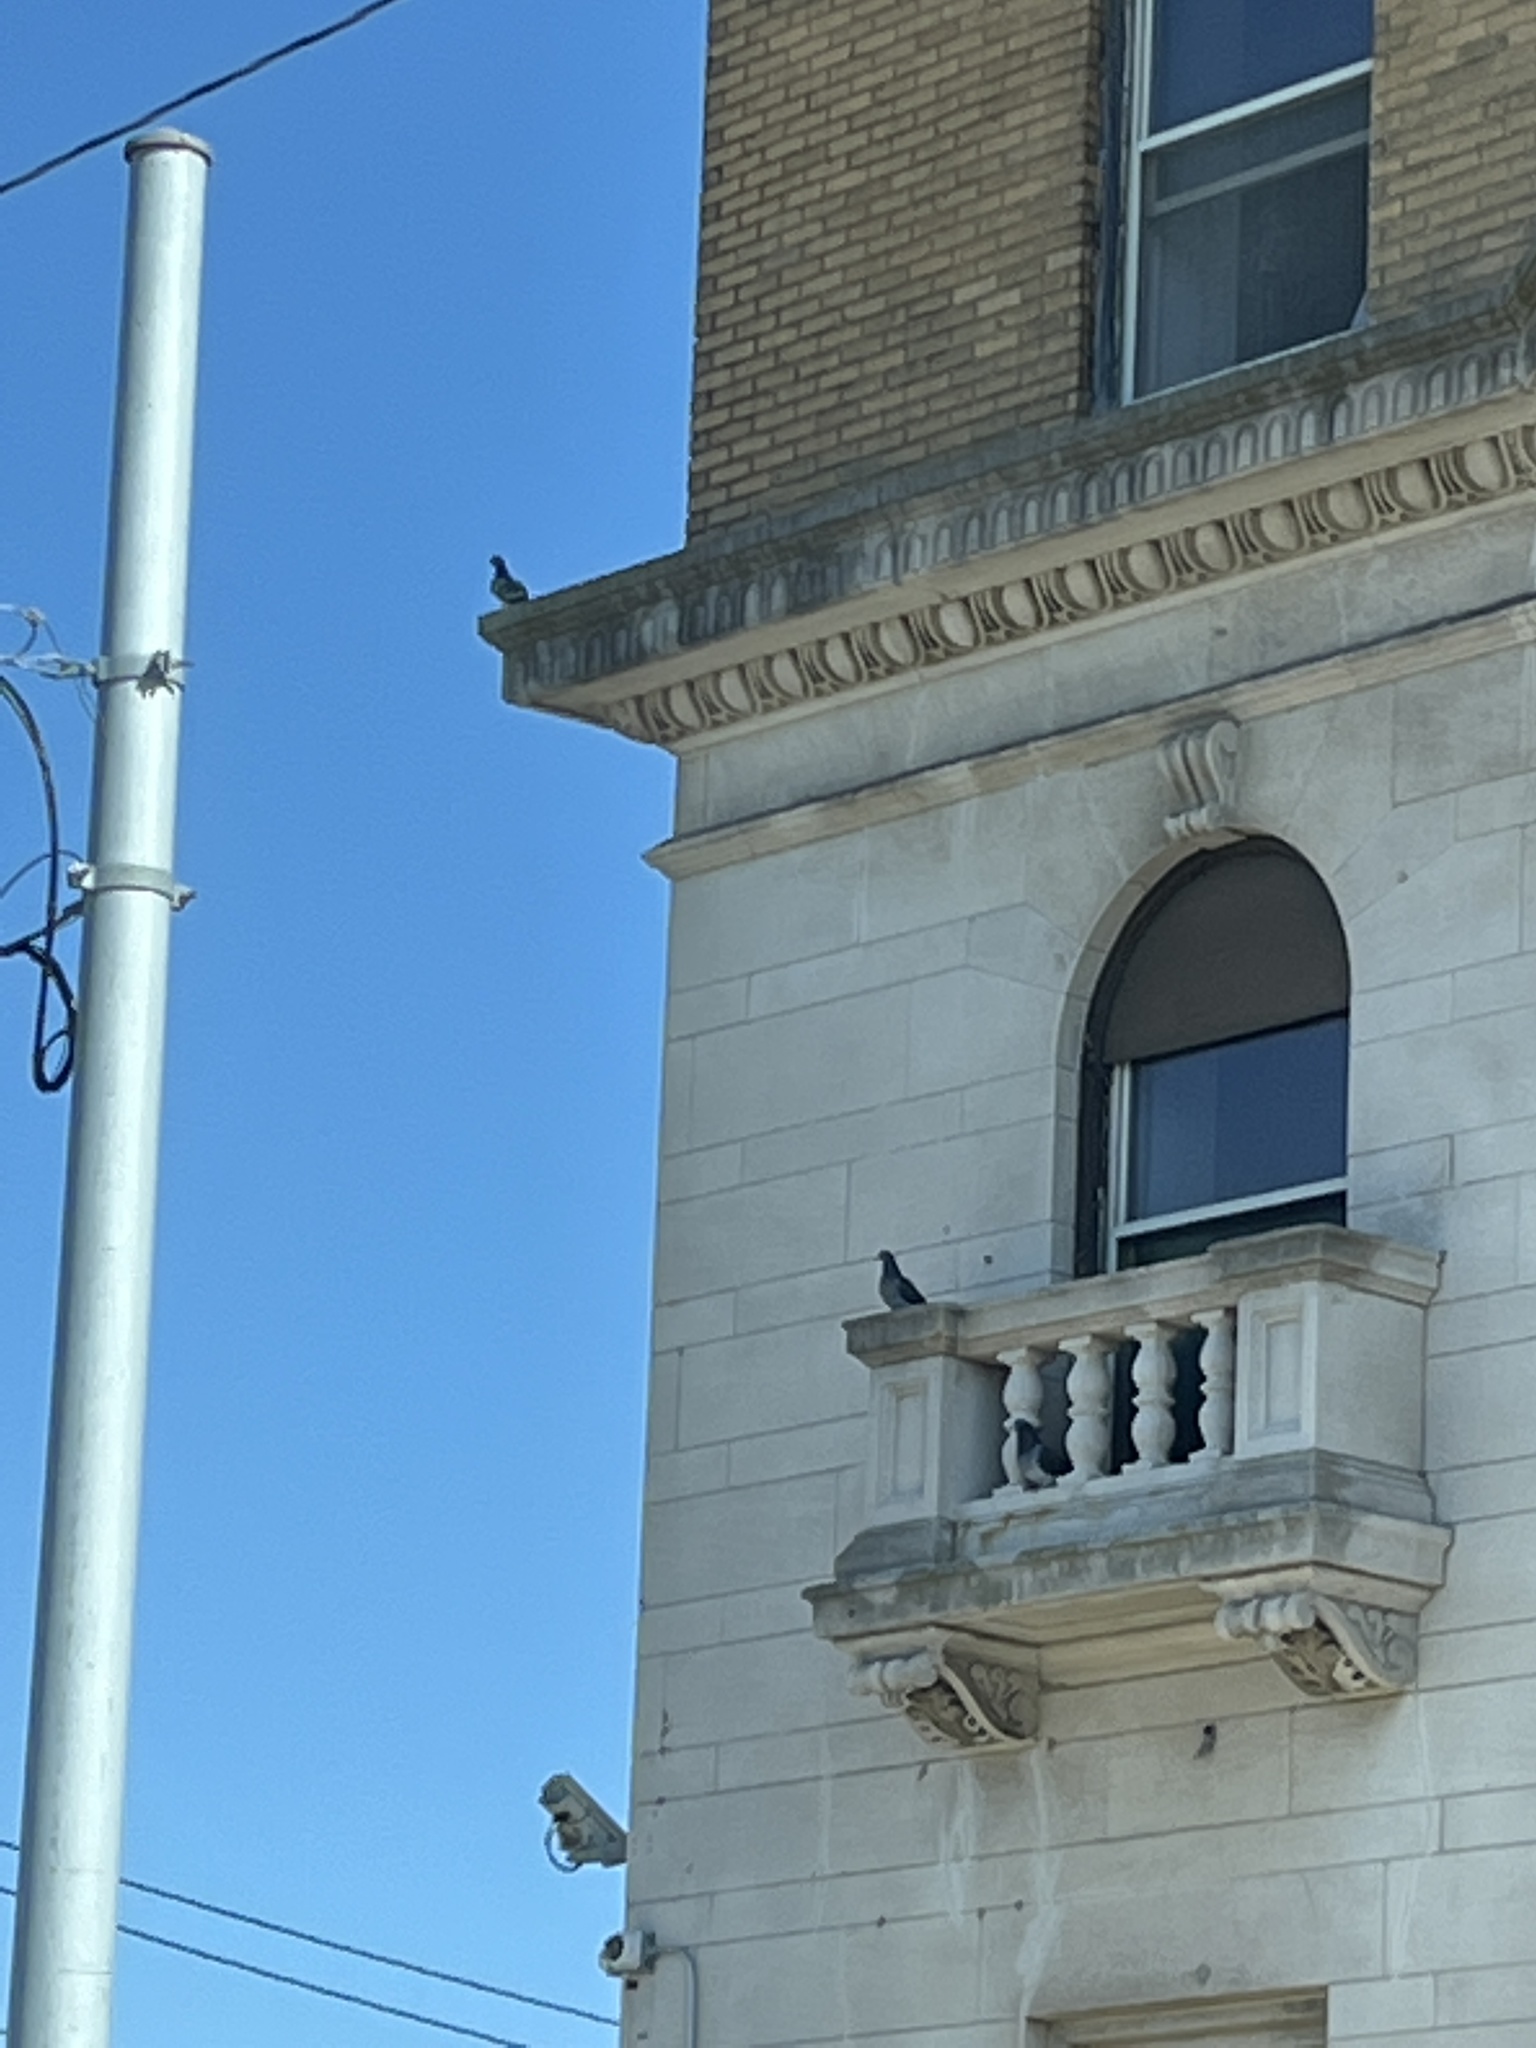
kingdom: Animalia
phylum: Chordata
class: Aves
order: Columbiformes
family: Columbidae
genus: Columba
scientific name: Columba livia
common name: Rock pigeon
